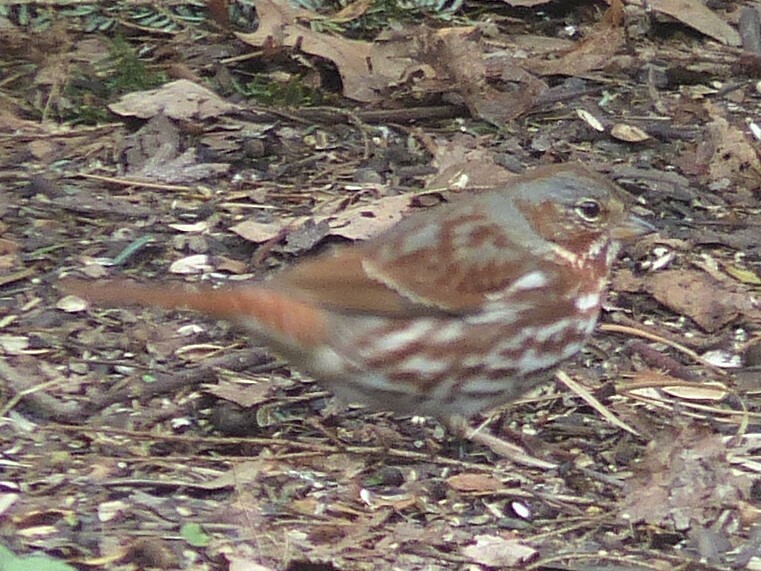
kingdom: Animalia
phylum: Chordata
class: Aves
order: Passeriformes
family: Passerellidae
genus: Passerella
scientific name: Passerella iliaca
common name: Fox sparrow
